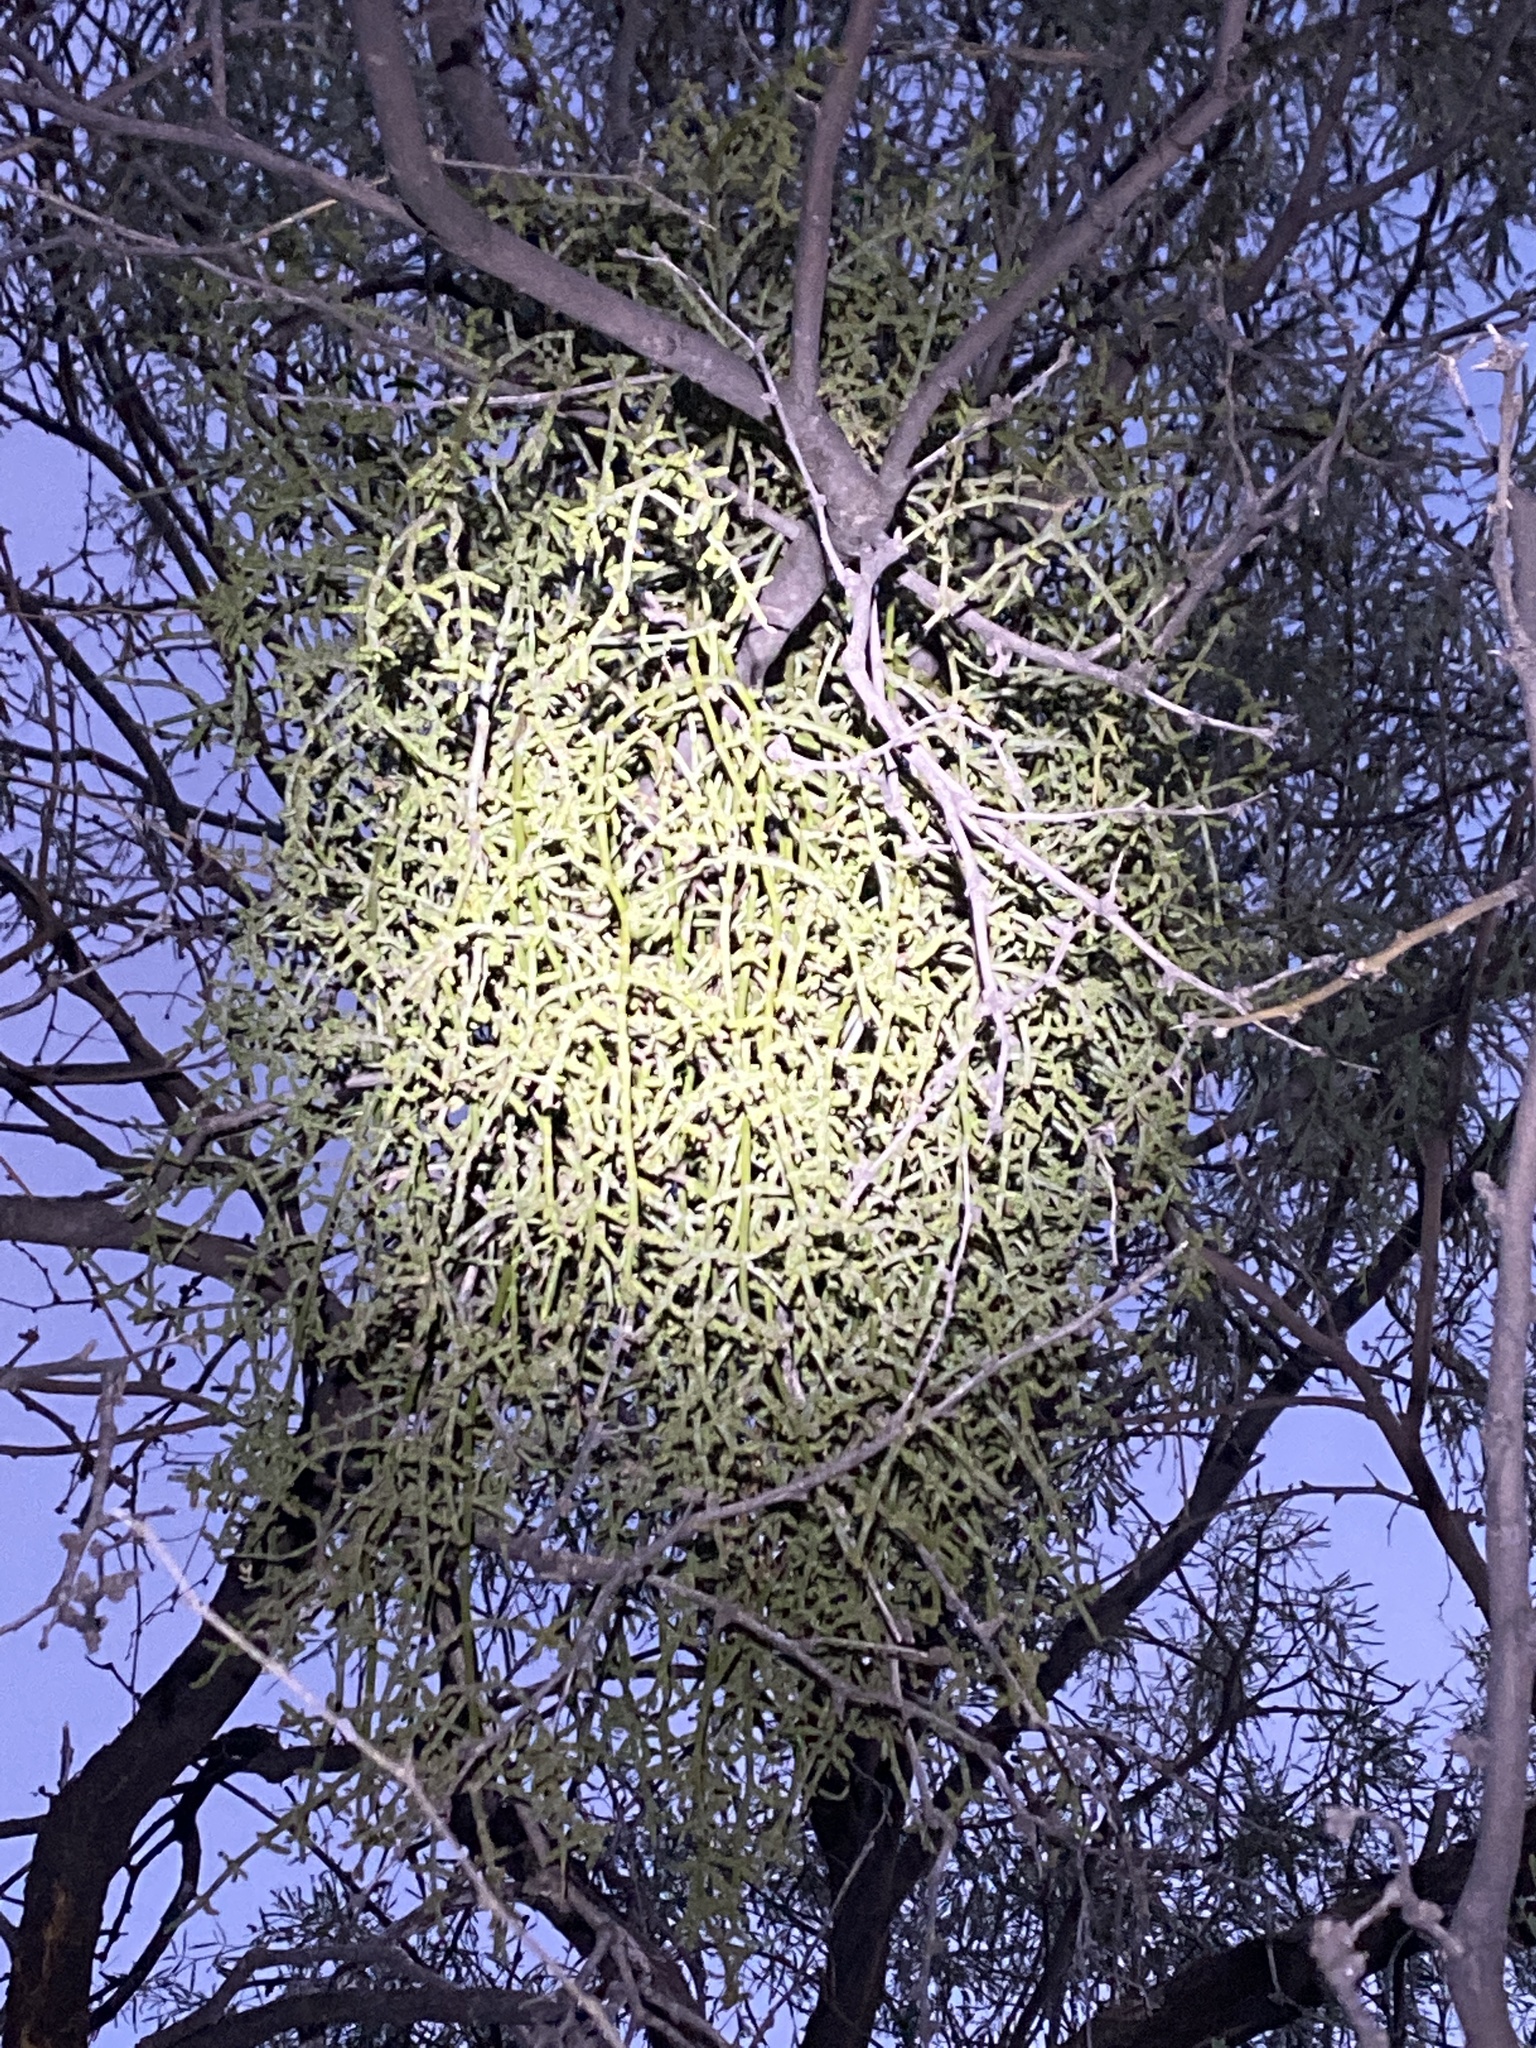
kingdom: Plantae
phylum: Tracheophyta
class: Magnoliopsida
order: Santalales
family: Viscaceae
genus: Phoradendron
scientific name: Phoradendron californicum
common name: Acacia mistletoe
